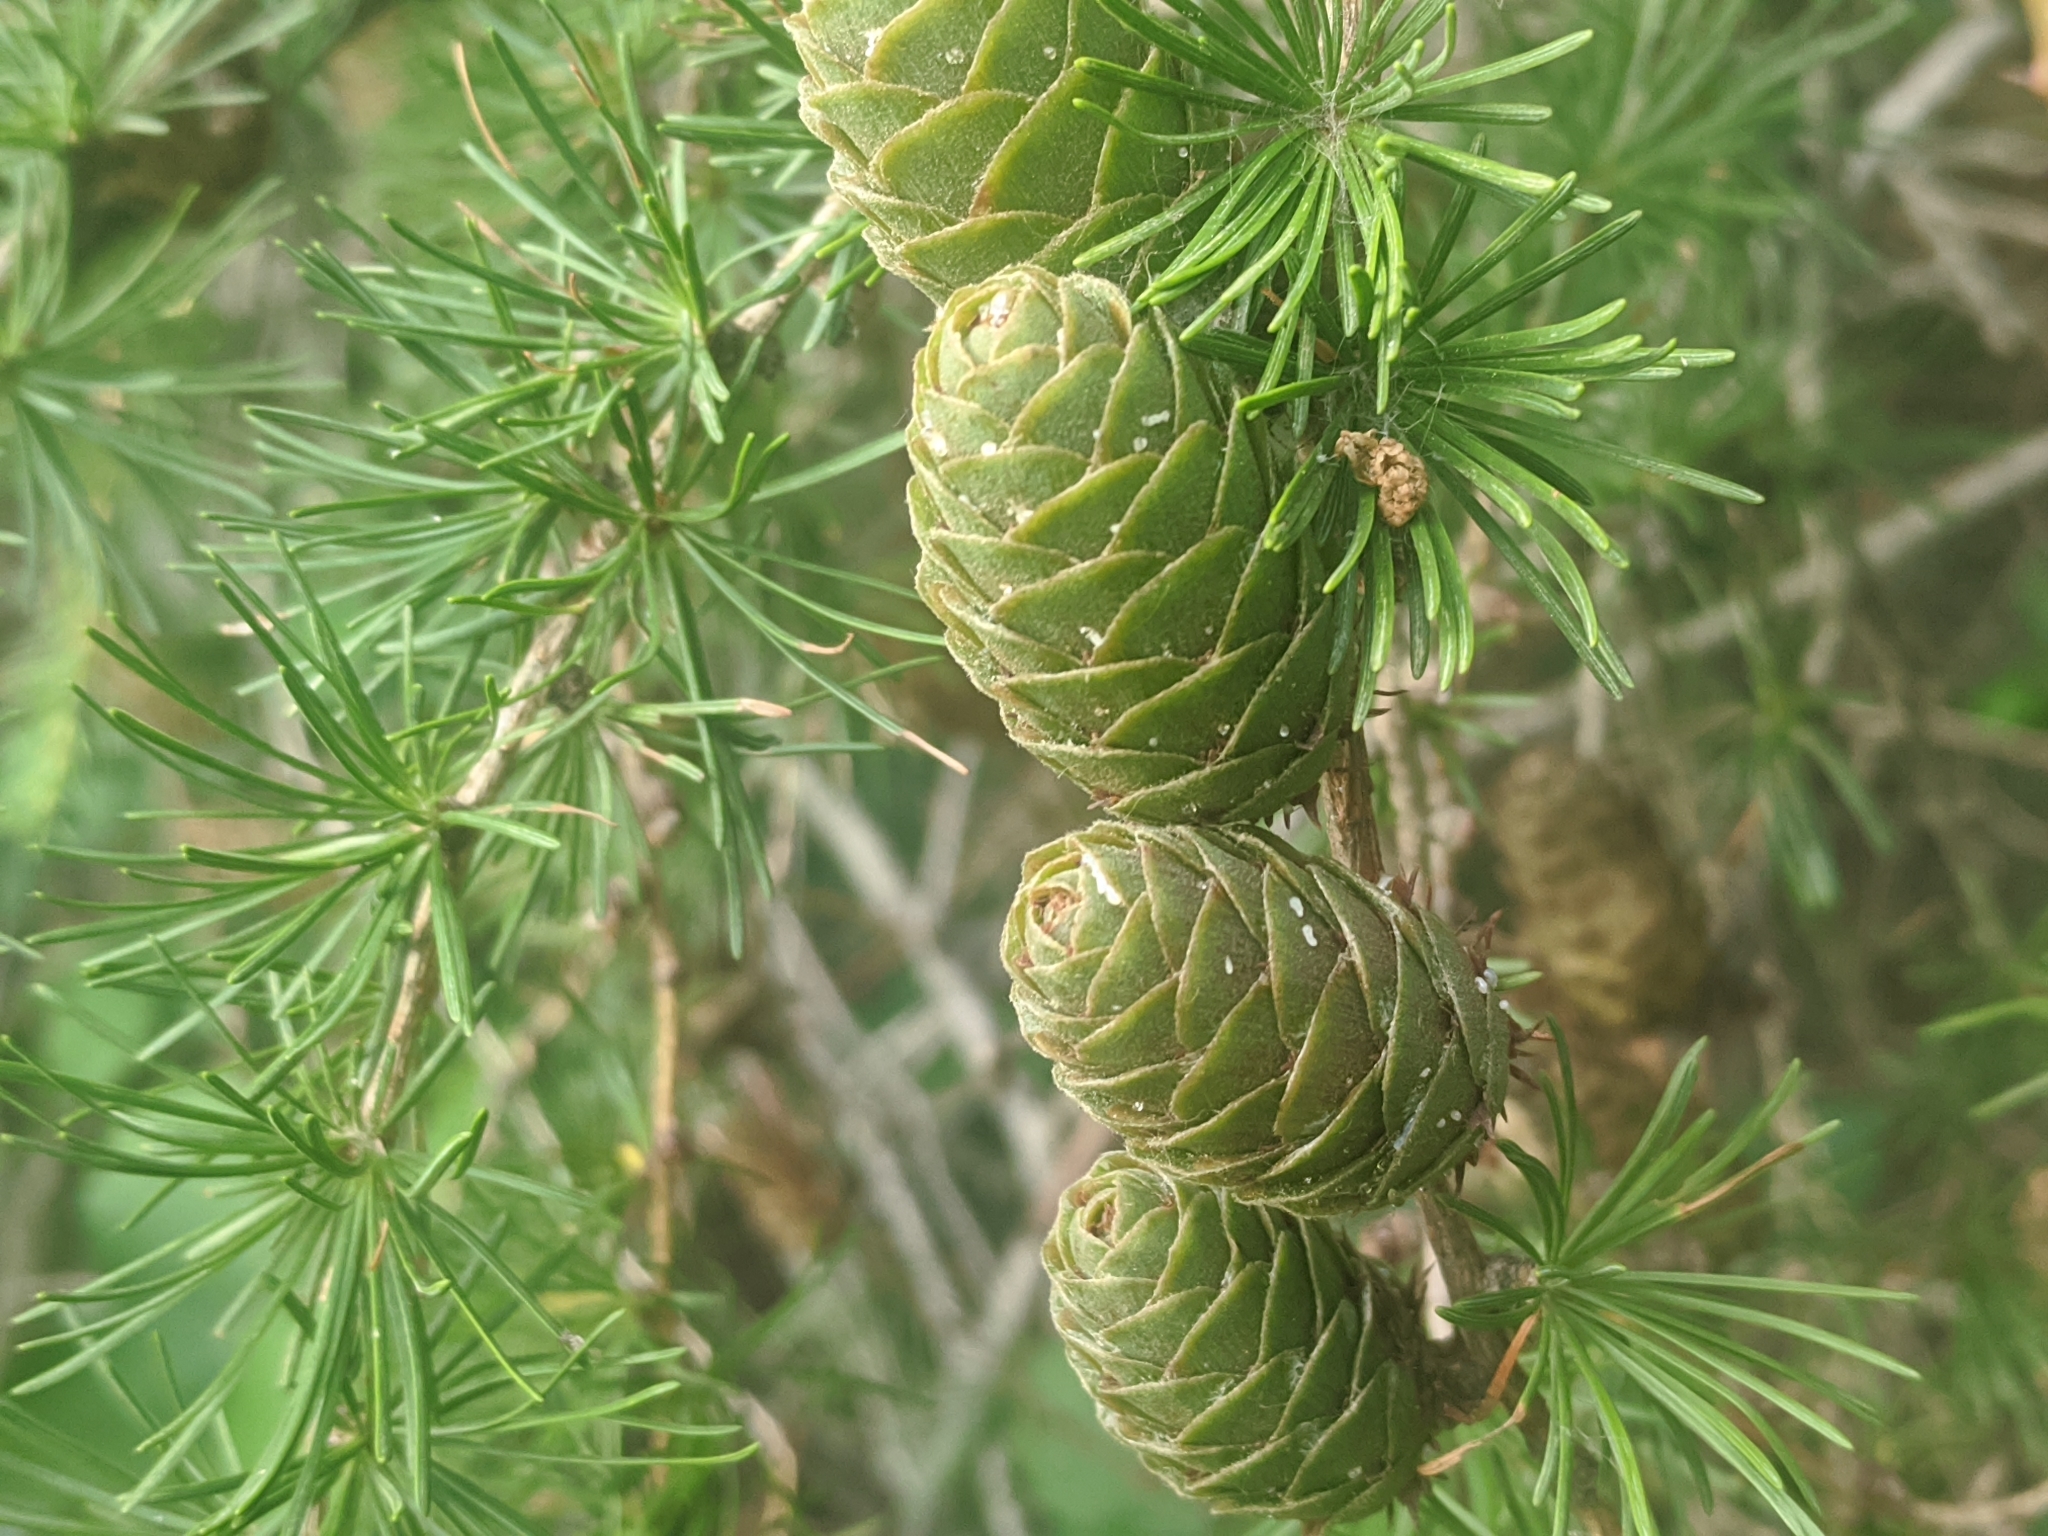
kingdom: Plantae
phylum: Tracheophyta
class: Pinopsida
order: Pinales
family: Pinaceae
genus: Larix
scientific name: Larix decidua
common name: European larch
